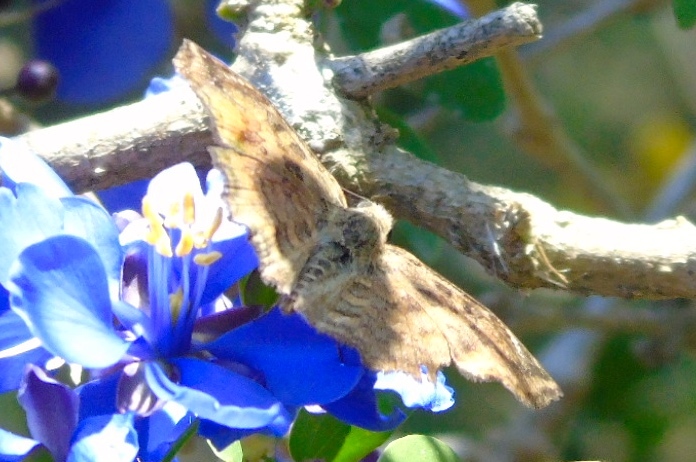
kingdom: Animalia
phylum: Arthropoda
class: Insecta
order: Lepidoptera
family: Hesperiidae
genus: Antigonus
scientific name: Antigonus erosus
